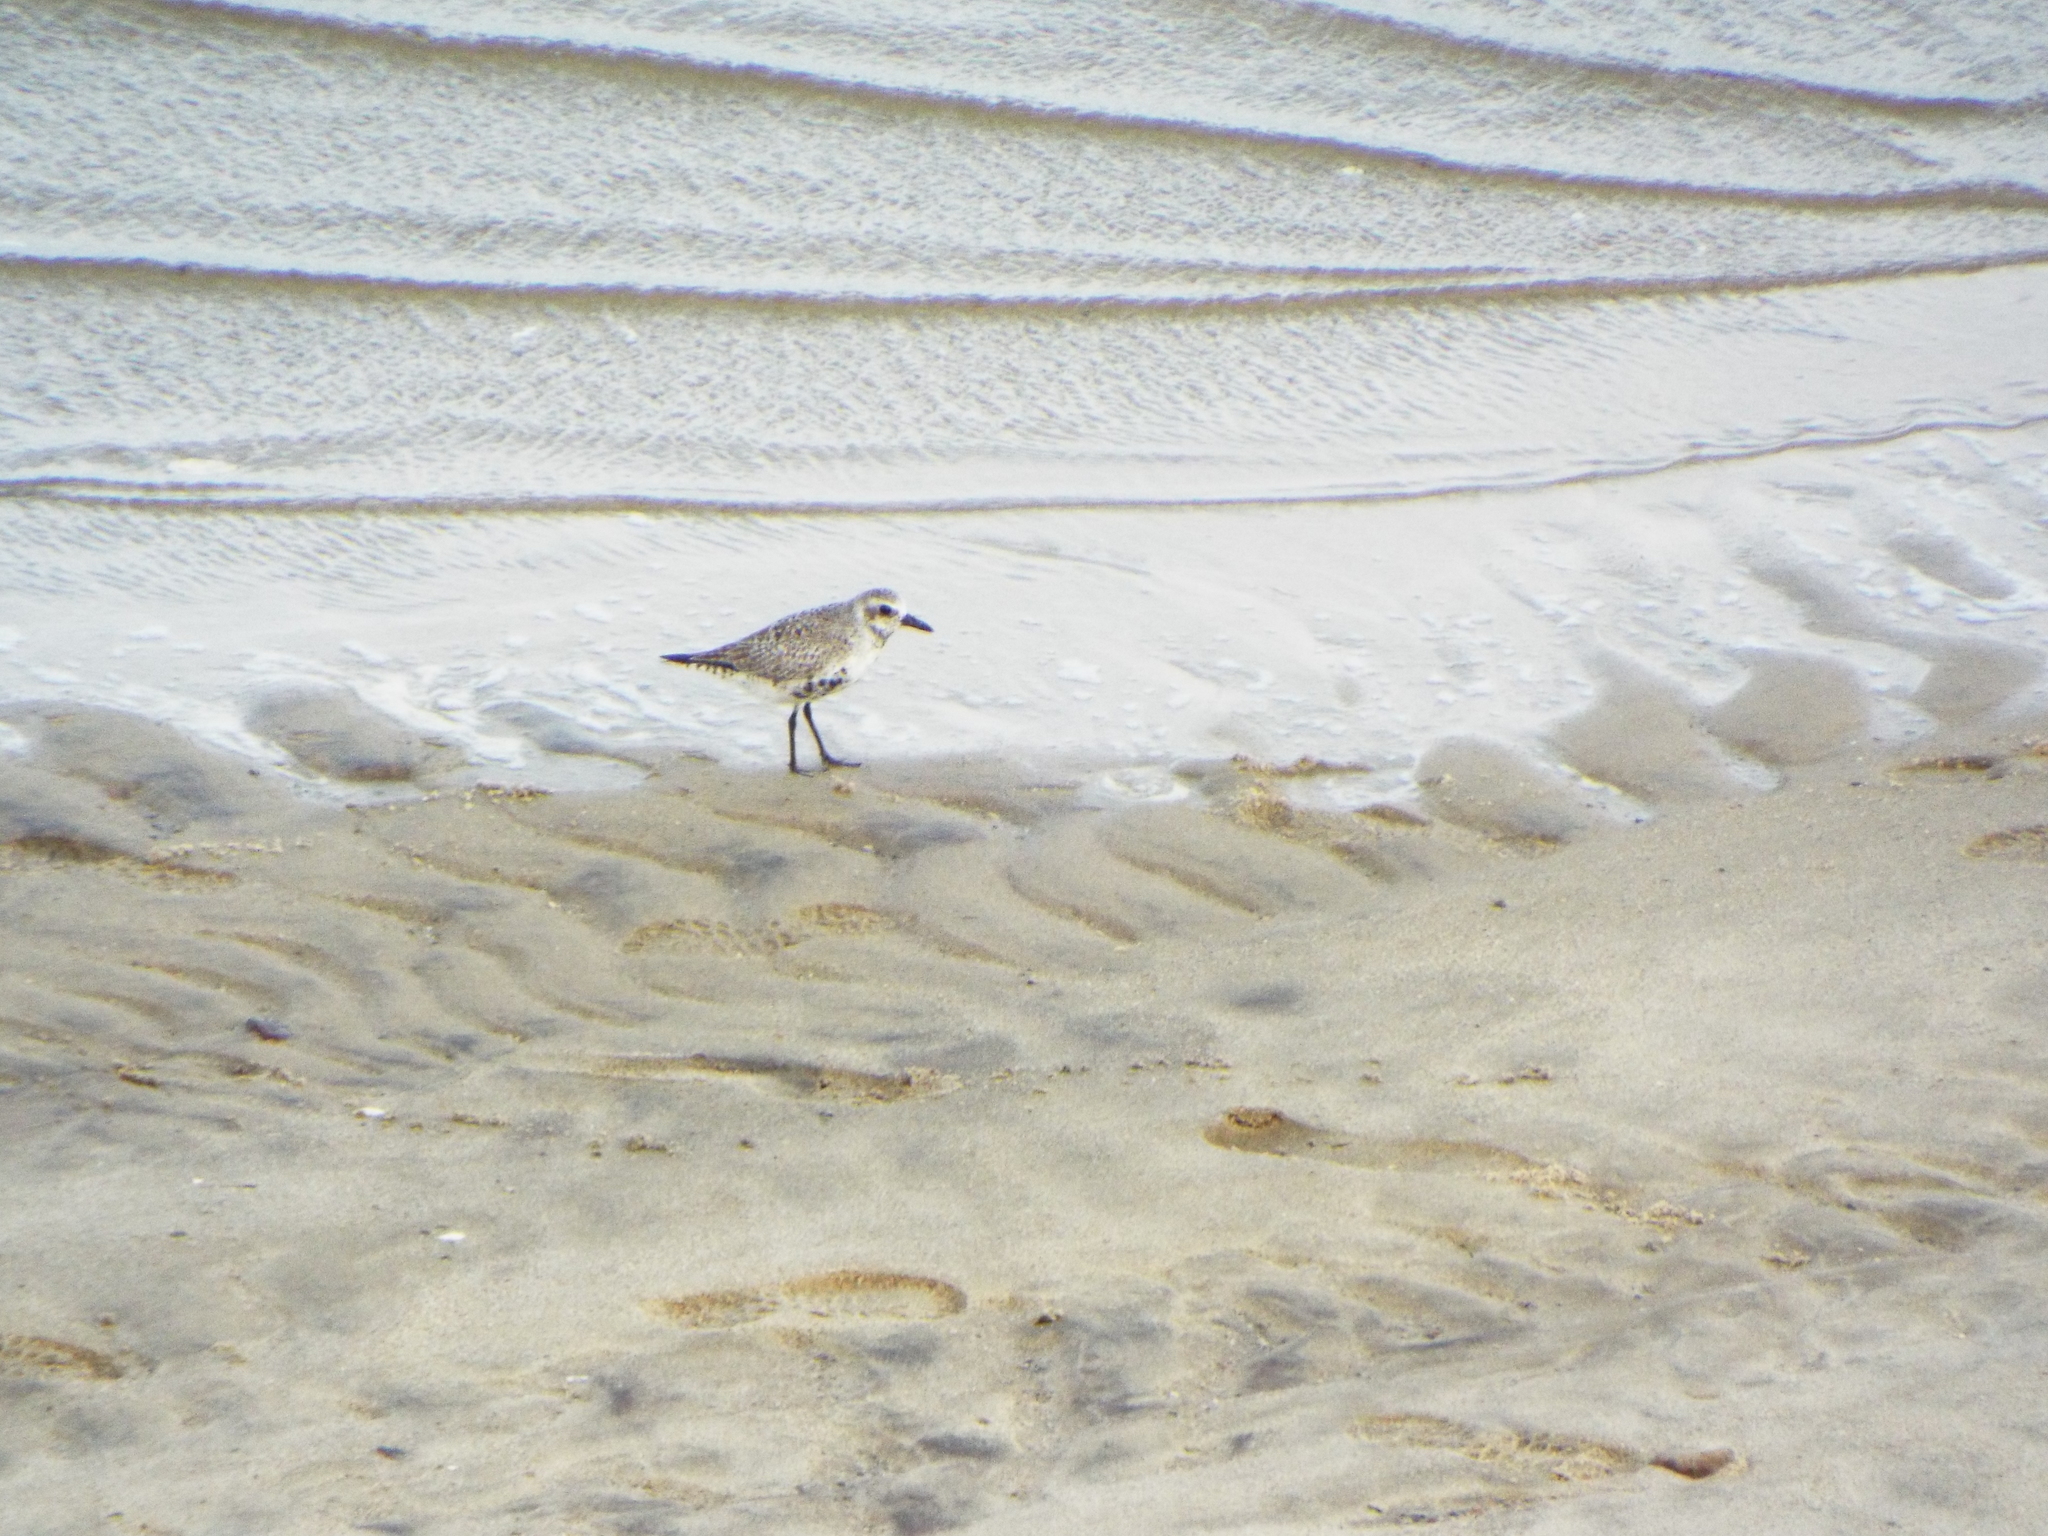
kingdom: Animalia
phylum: Chordata
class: Aves
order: Charadriiformes
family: Charadriidae
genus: Pluvialis
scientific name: Pluvialis squatarola
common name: Grey plover
